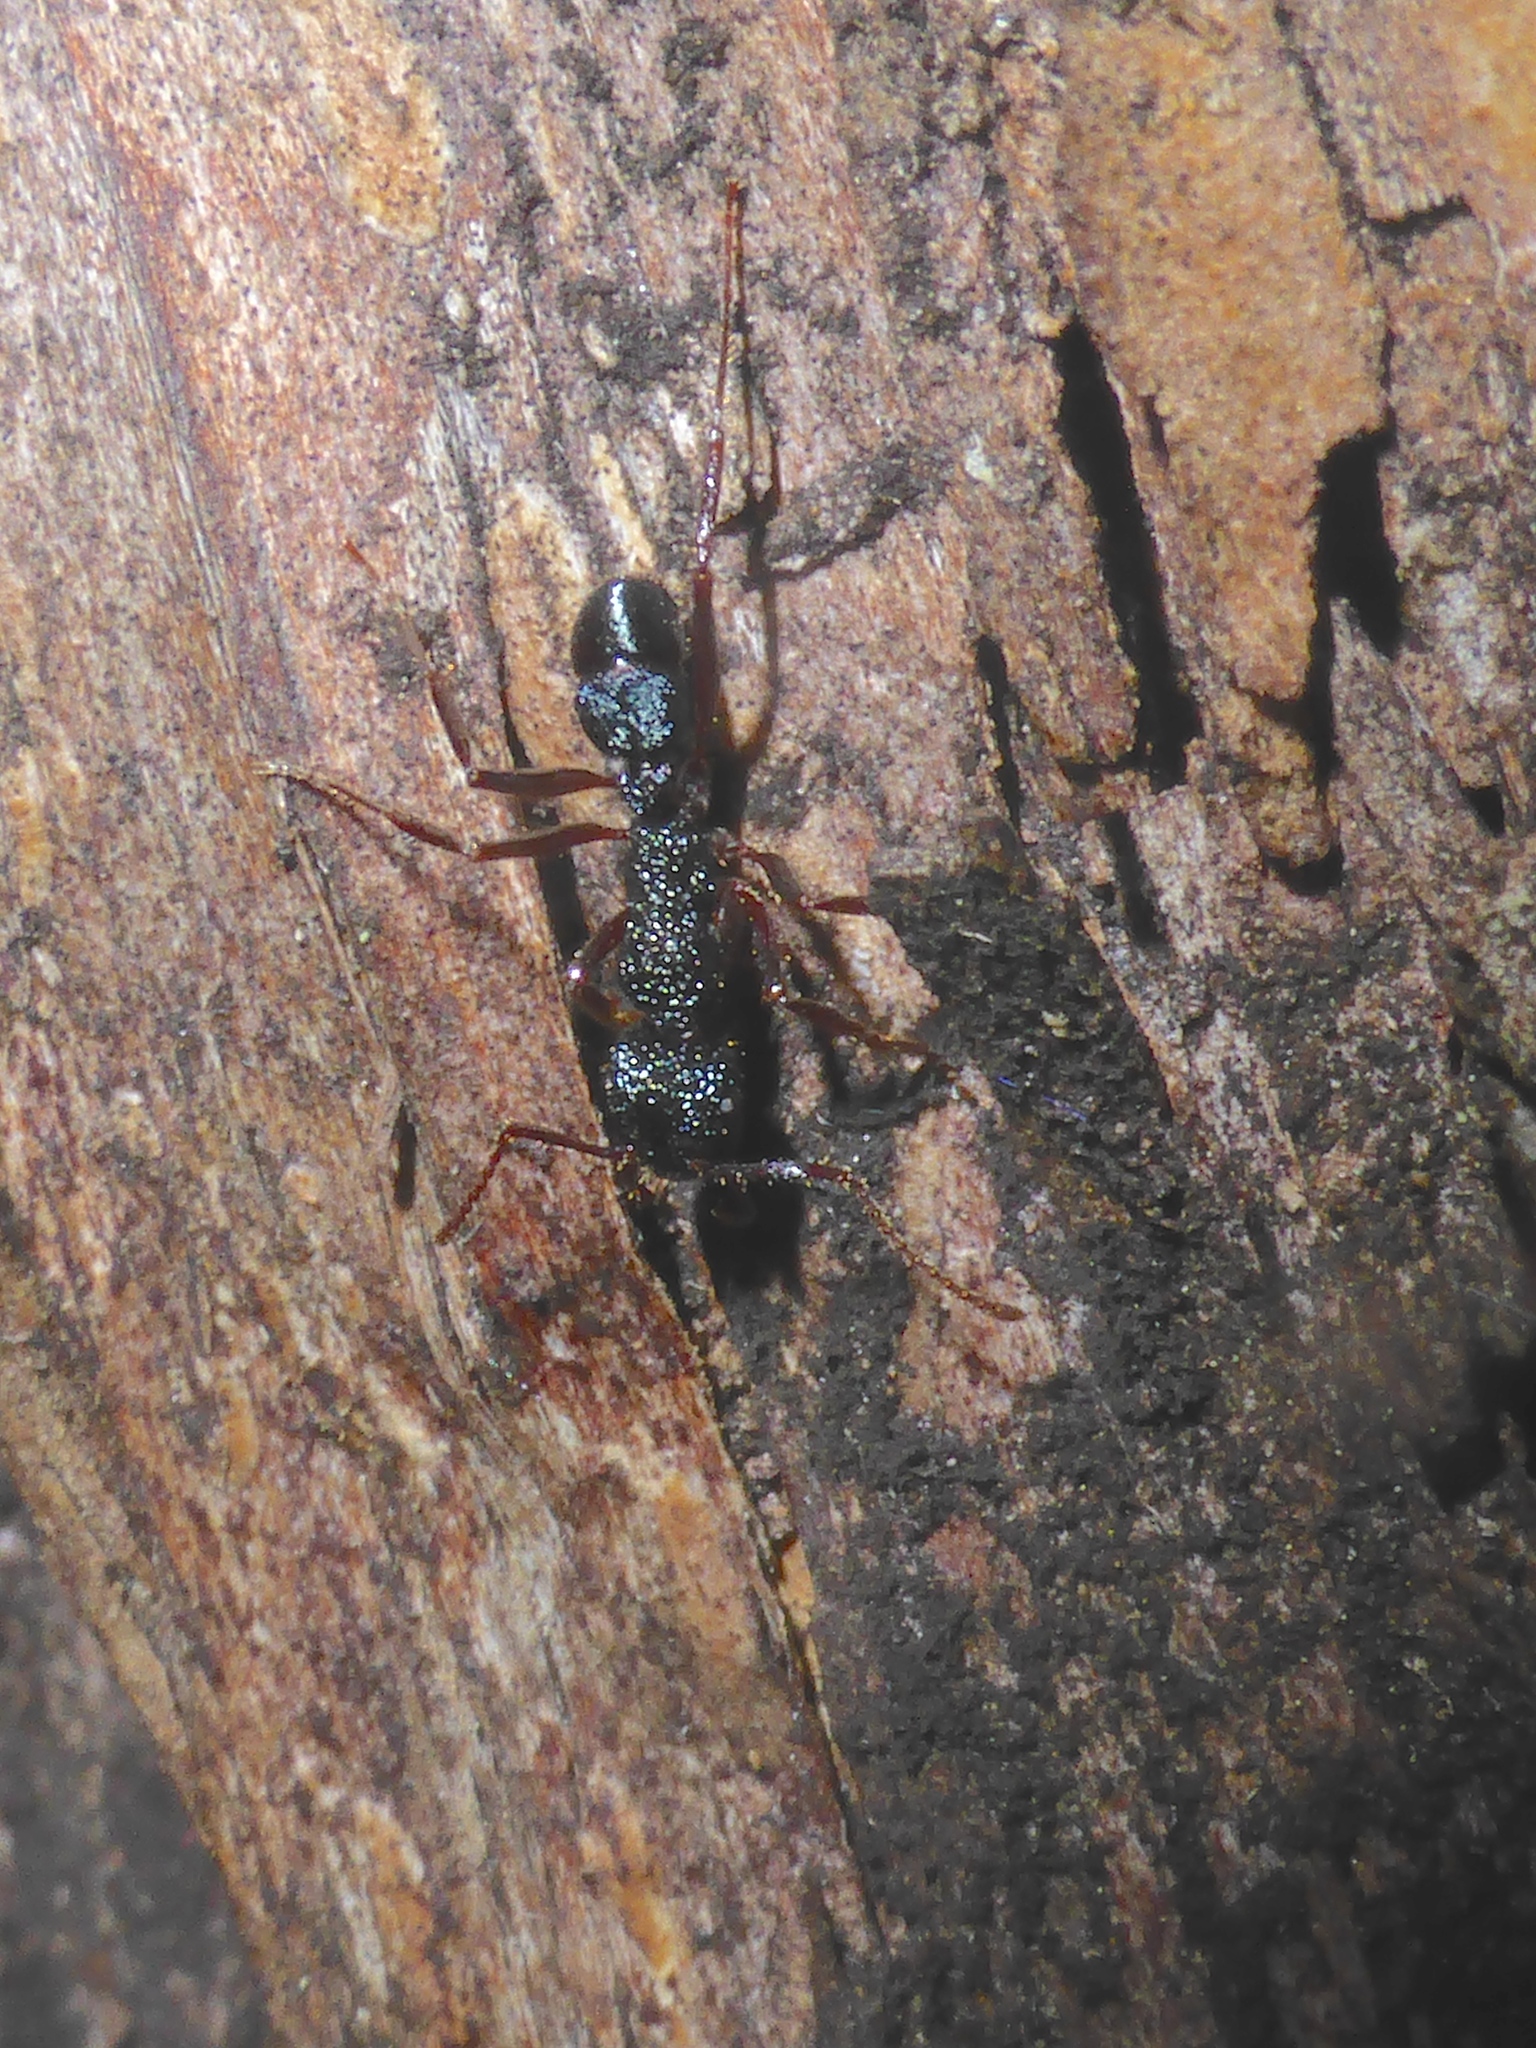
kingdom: Animalia
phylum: Arthropoda
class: Insecta
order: Hymenoptera
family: Formicidae
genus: Rhytidoponera
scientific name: Rhytidoponera chalybaea
